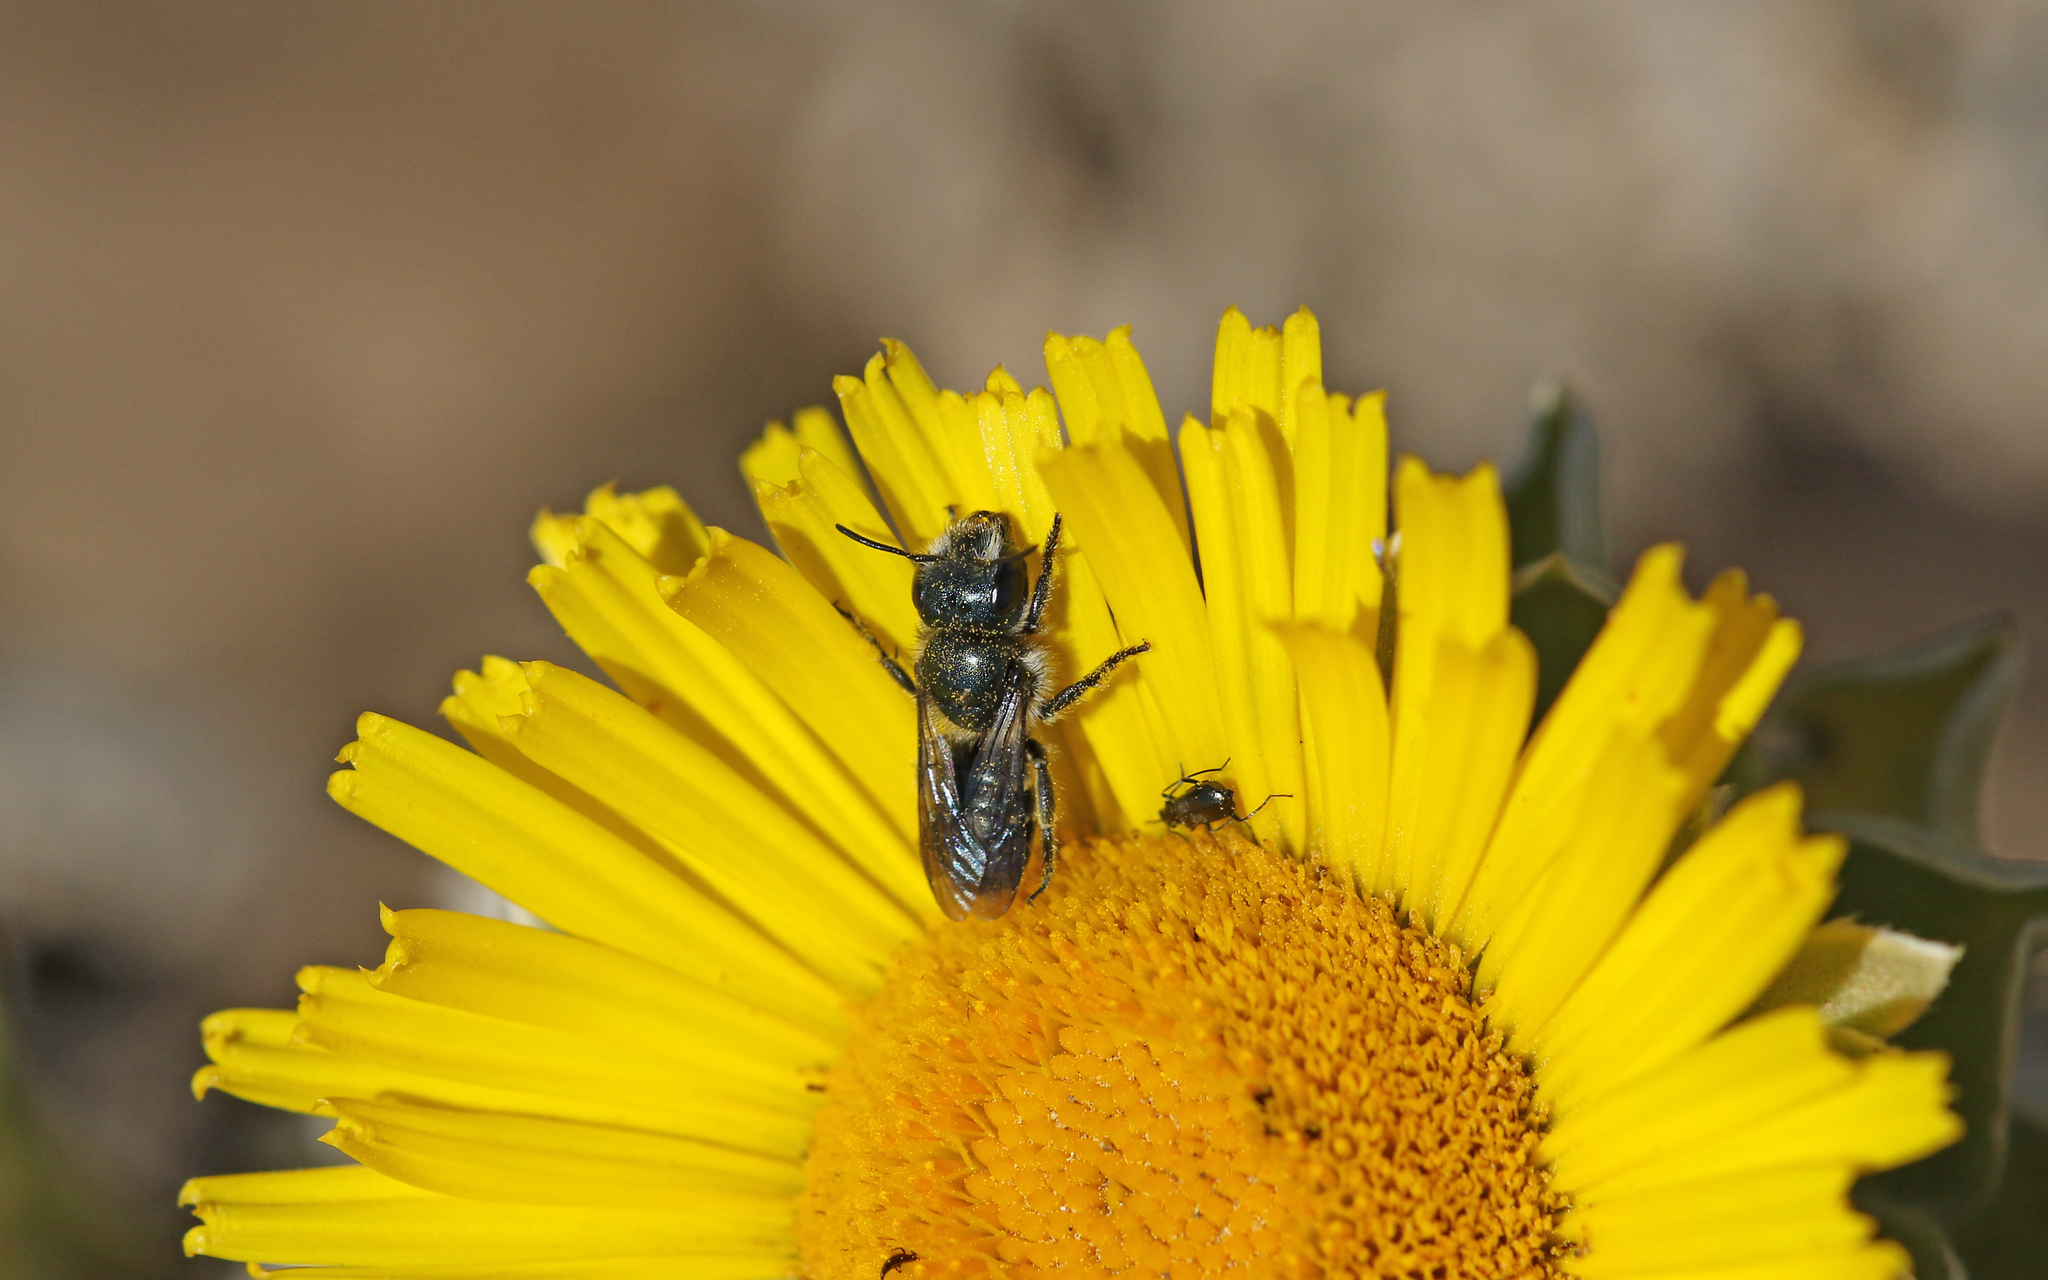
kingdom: Animalia
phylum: Arthropoda
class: Insecta
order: Hymenoptera
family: Megachilidae
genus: Osmia
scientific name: Osmia submicans
